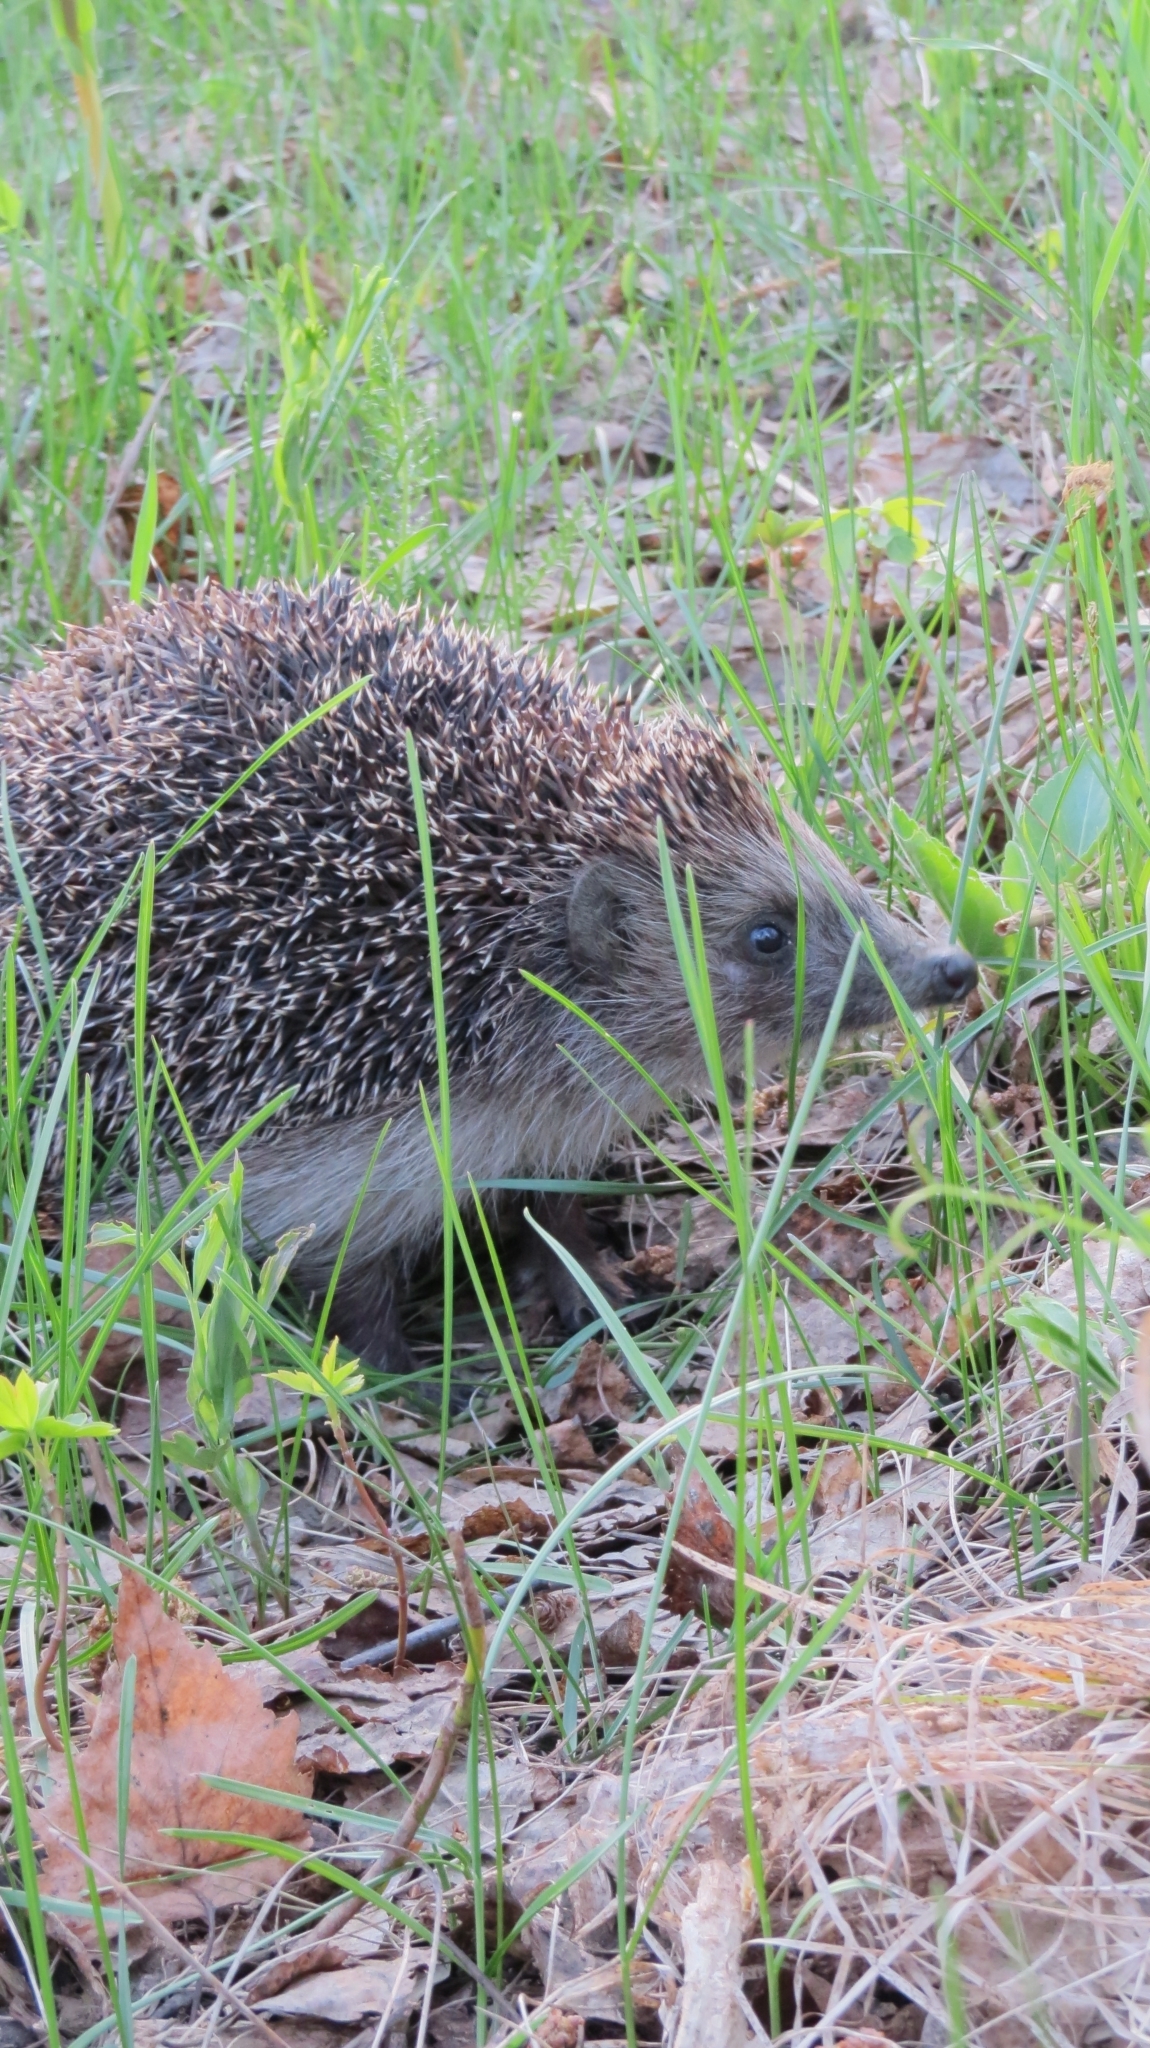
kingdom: Animalia
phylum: Chordata
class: Mammalia
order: Erinaceomorpha
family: Erinaceidae
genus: Erinaceus
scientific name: Erinaceus roumanicus
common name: Northern white-breasted hedgehog
